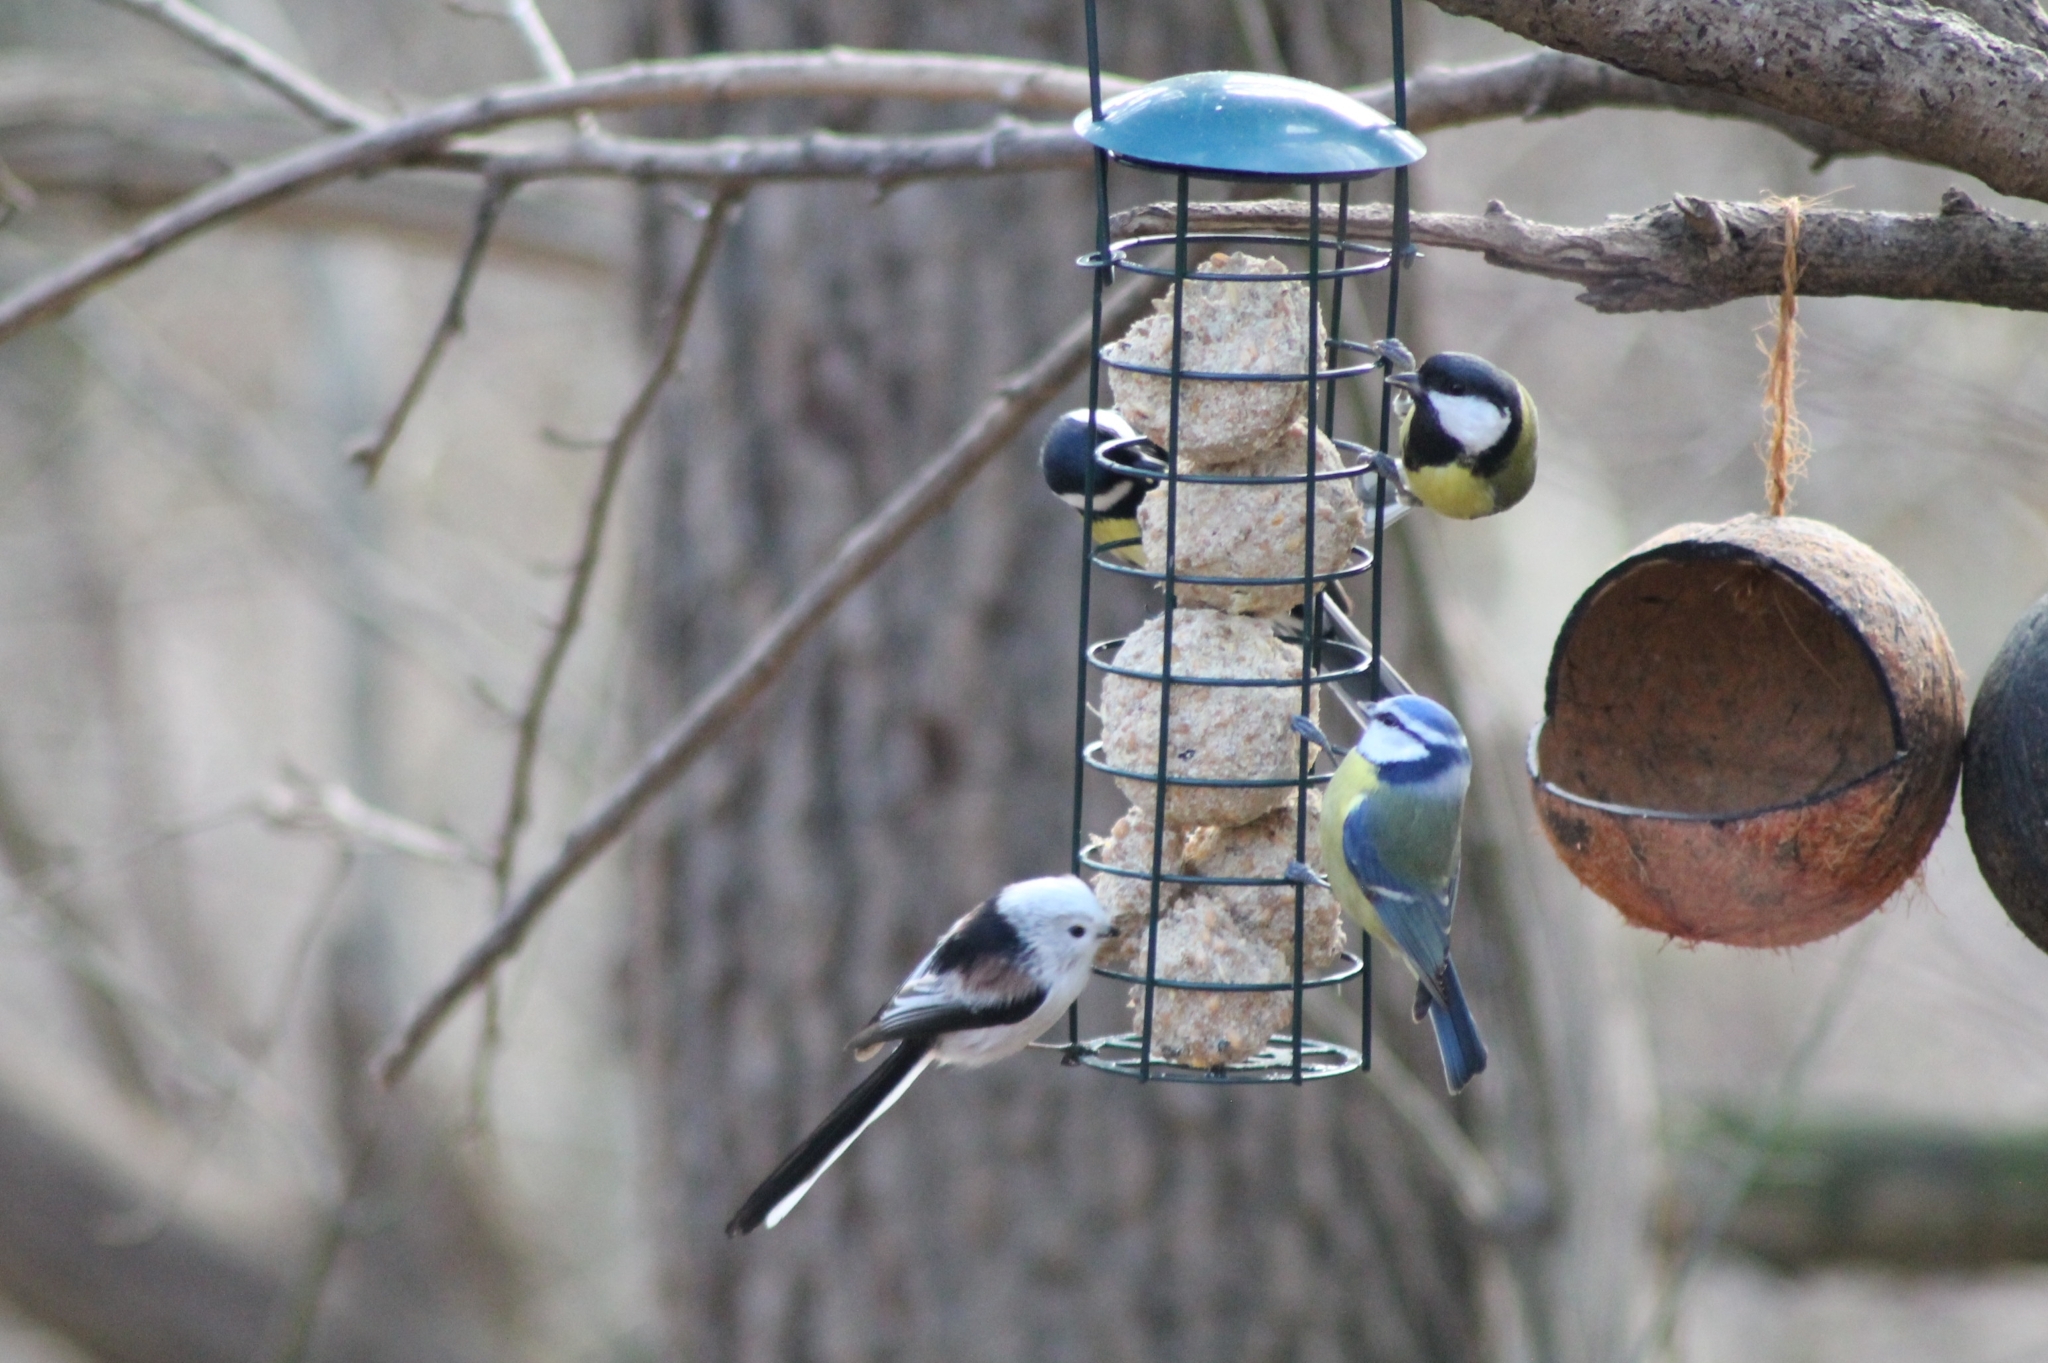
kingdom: Animalia
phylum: Chordata
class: Aves
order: Passeriformes
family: Aegithalidae
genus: Aegithalos
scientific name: Aegithalos caudatus
